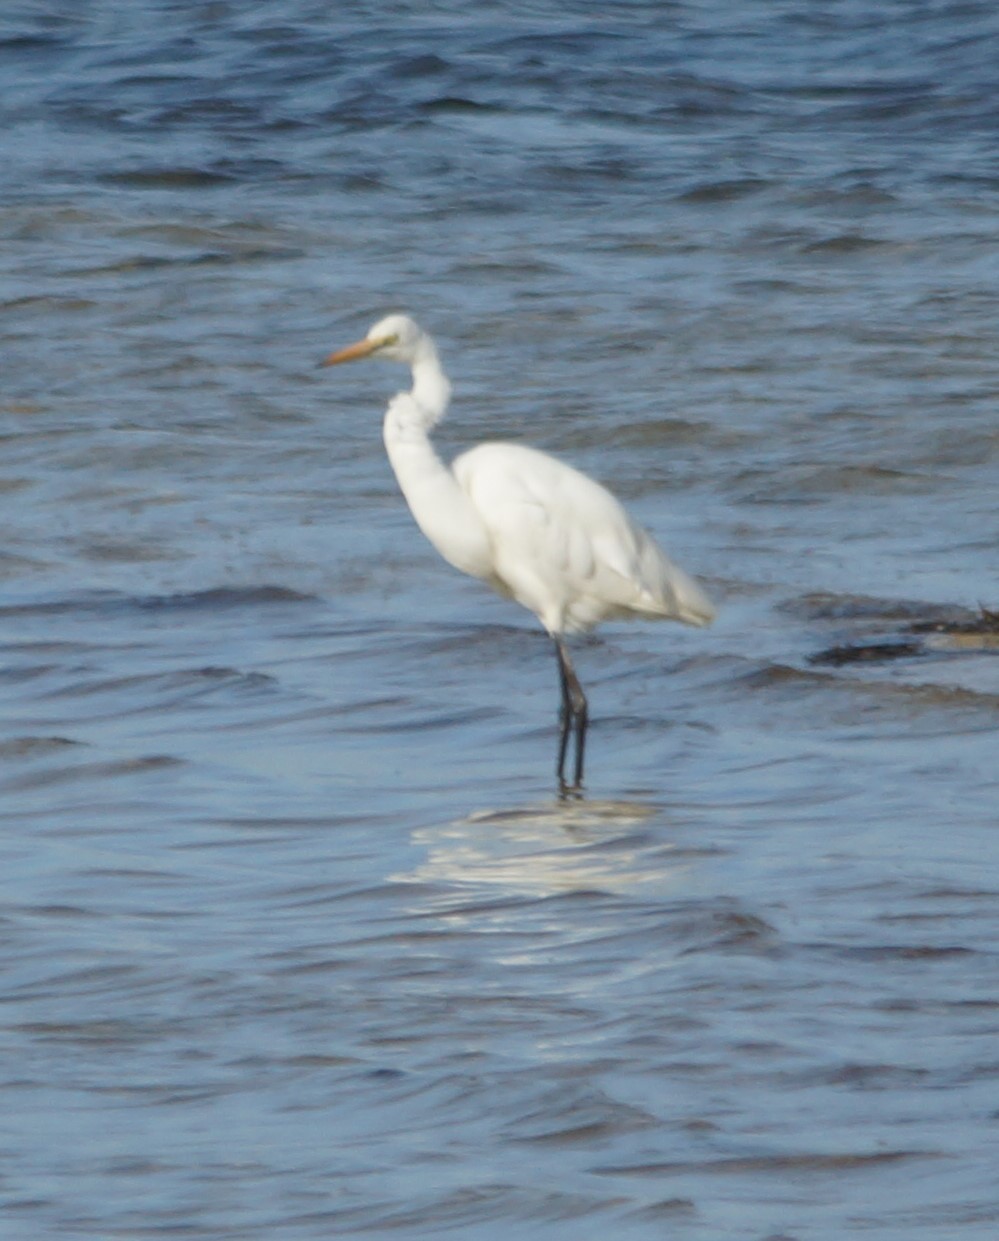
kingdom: Animalia
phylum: Chordata
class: Aves
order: Pelecaniformes
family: Ardeidae
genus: Ardea
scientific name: Ardea alba
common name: Great egret
